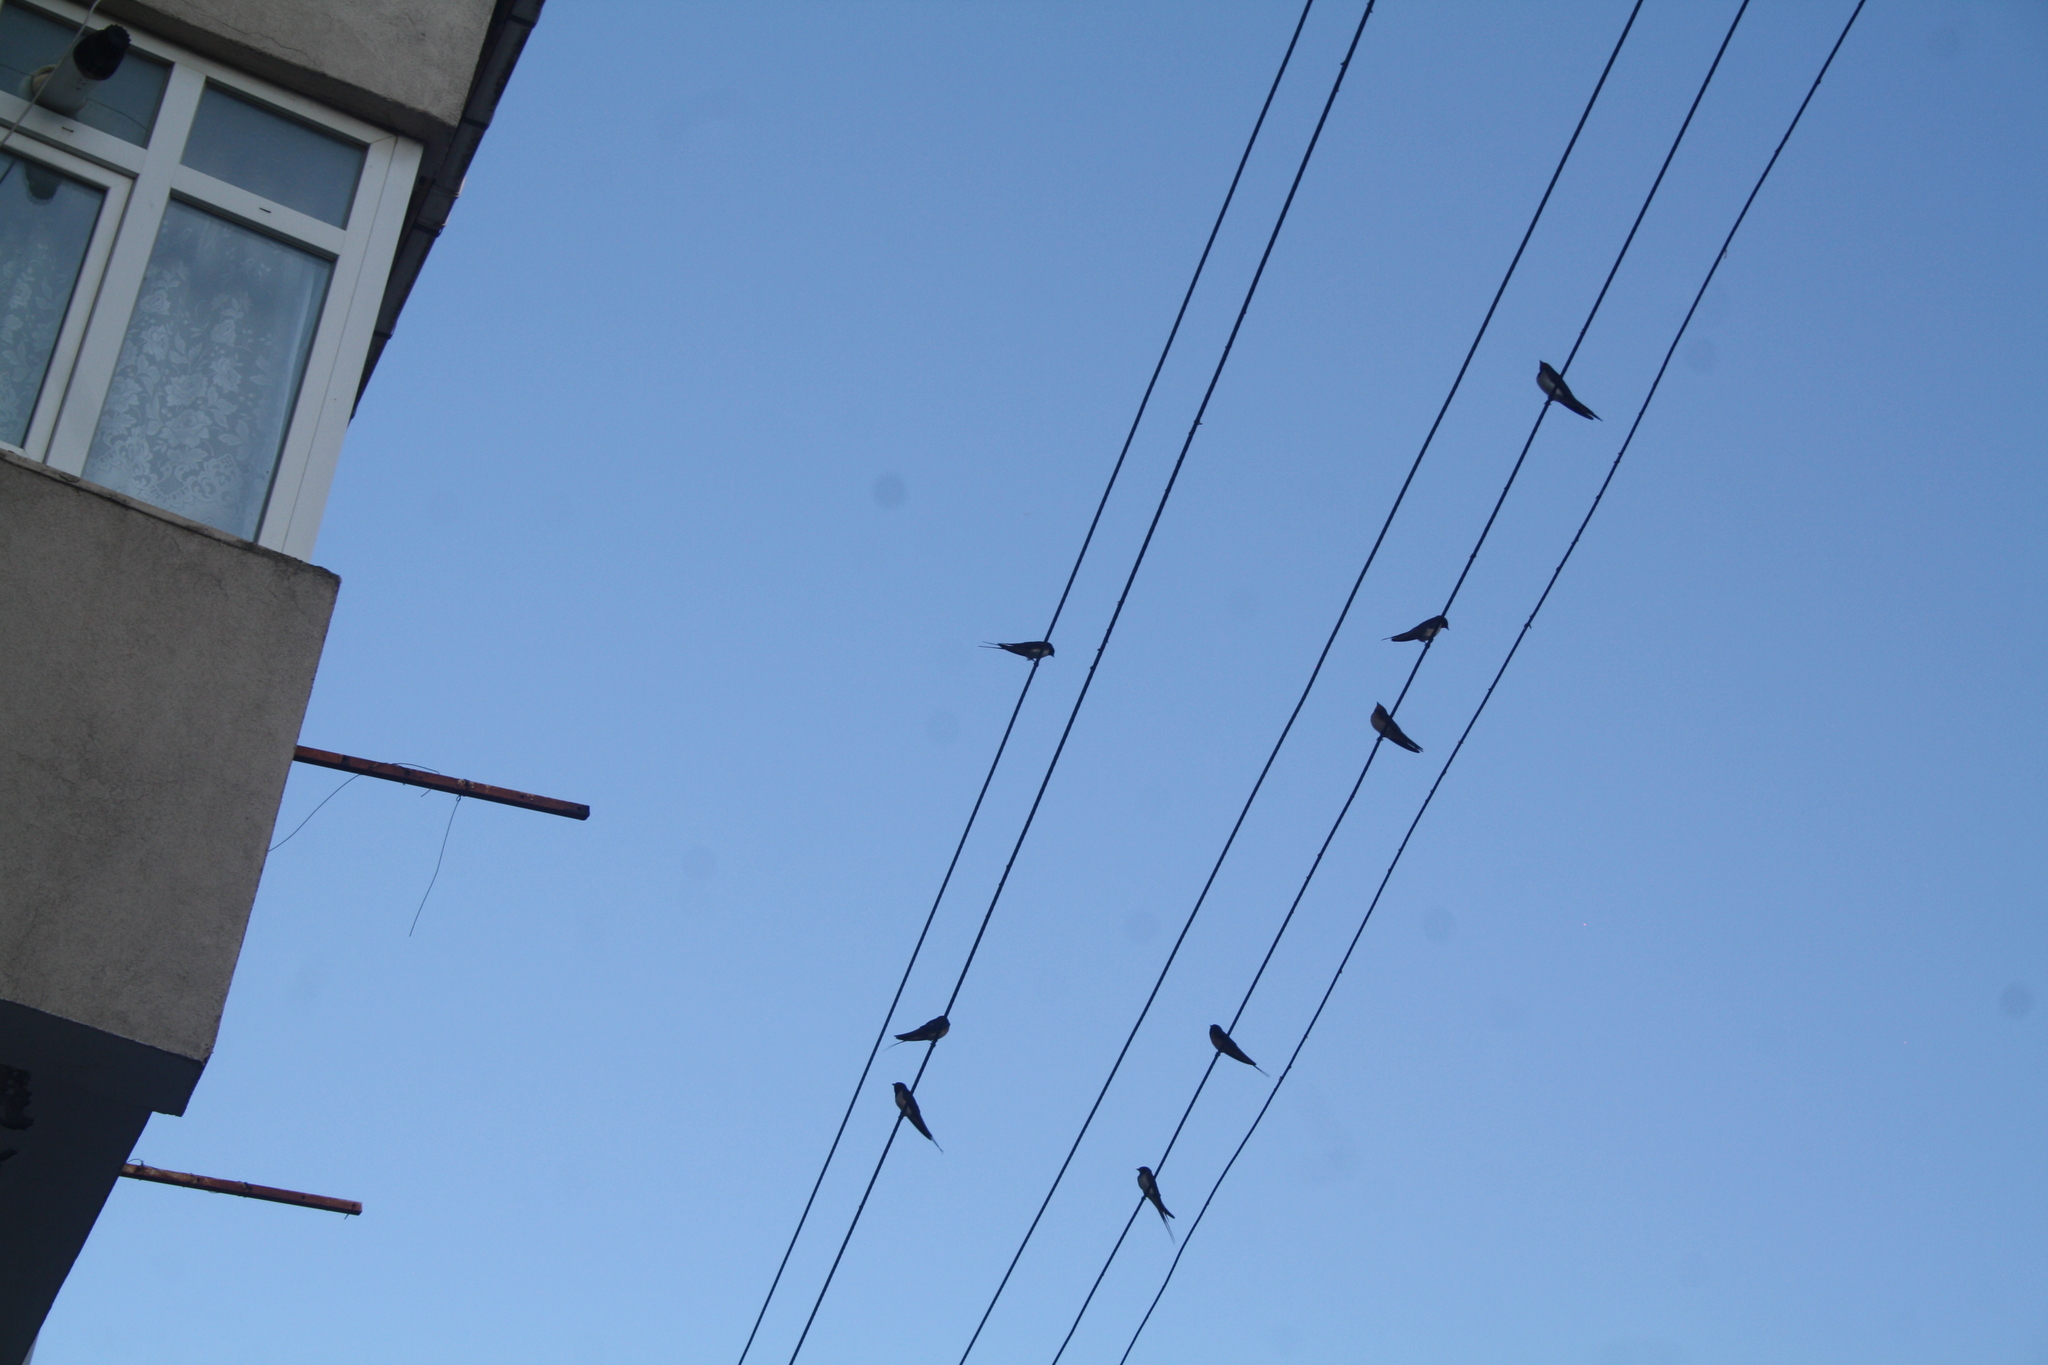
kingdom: Animalia
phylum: Chordata
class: Aves
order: Passeriformes
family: Hirundinidae
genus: Hirundo
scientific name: Hirundo rustica
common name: Barn swallow
